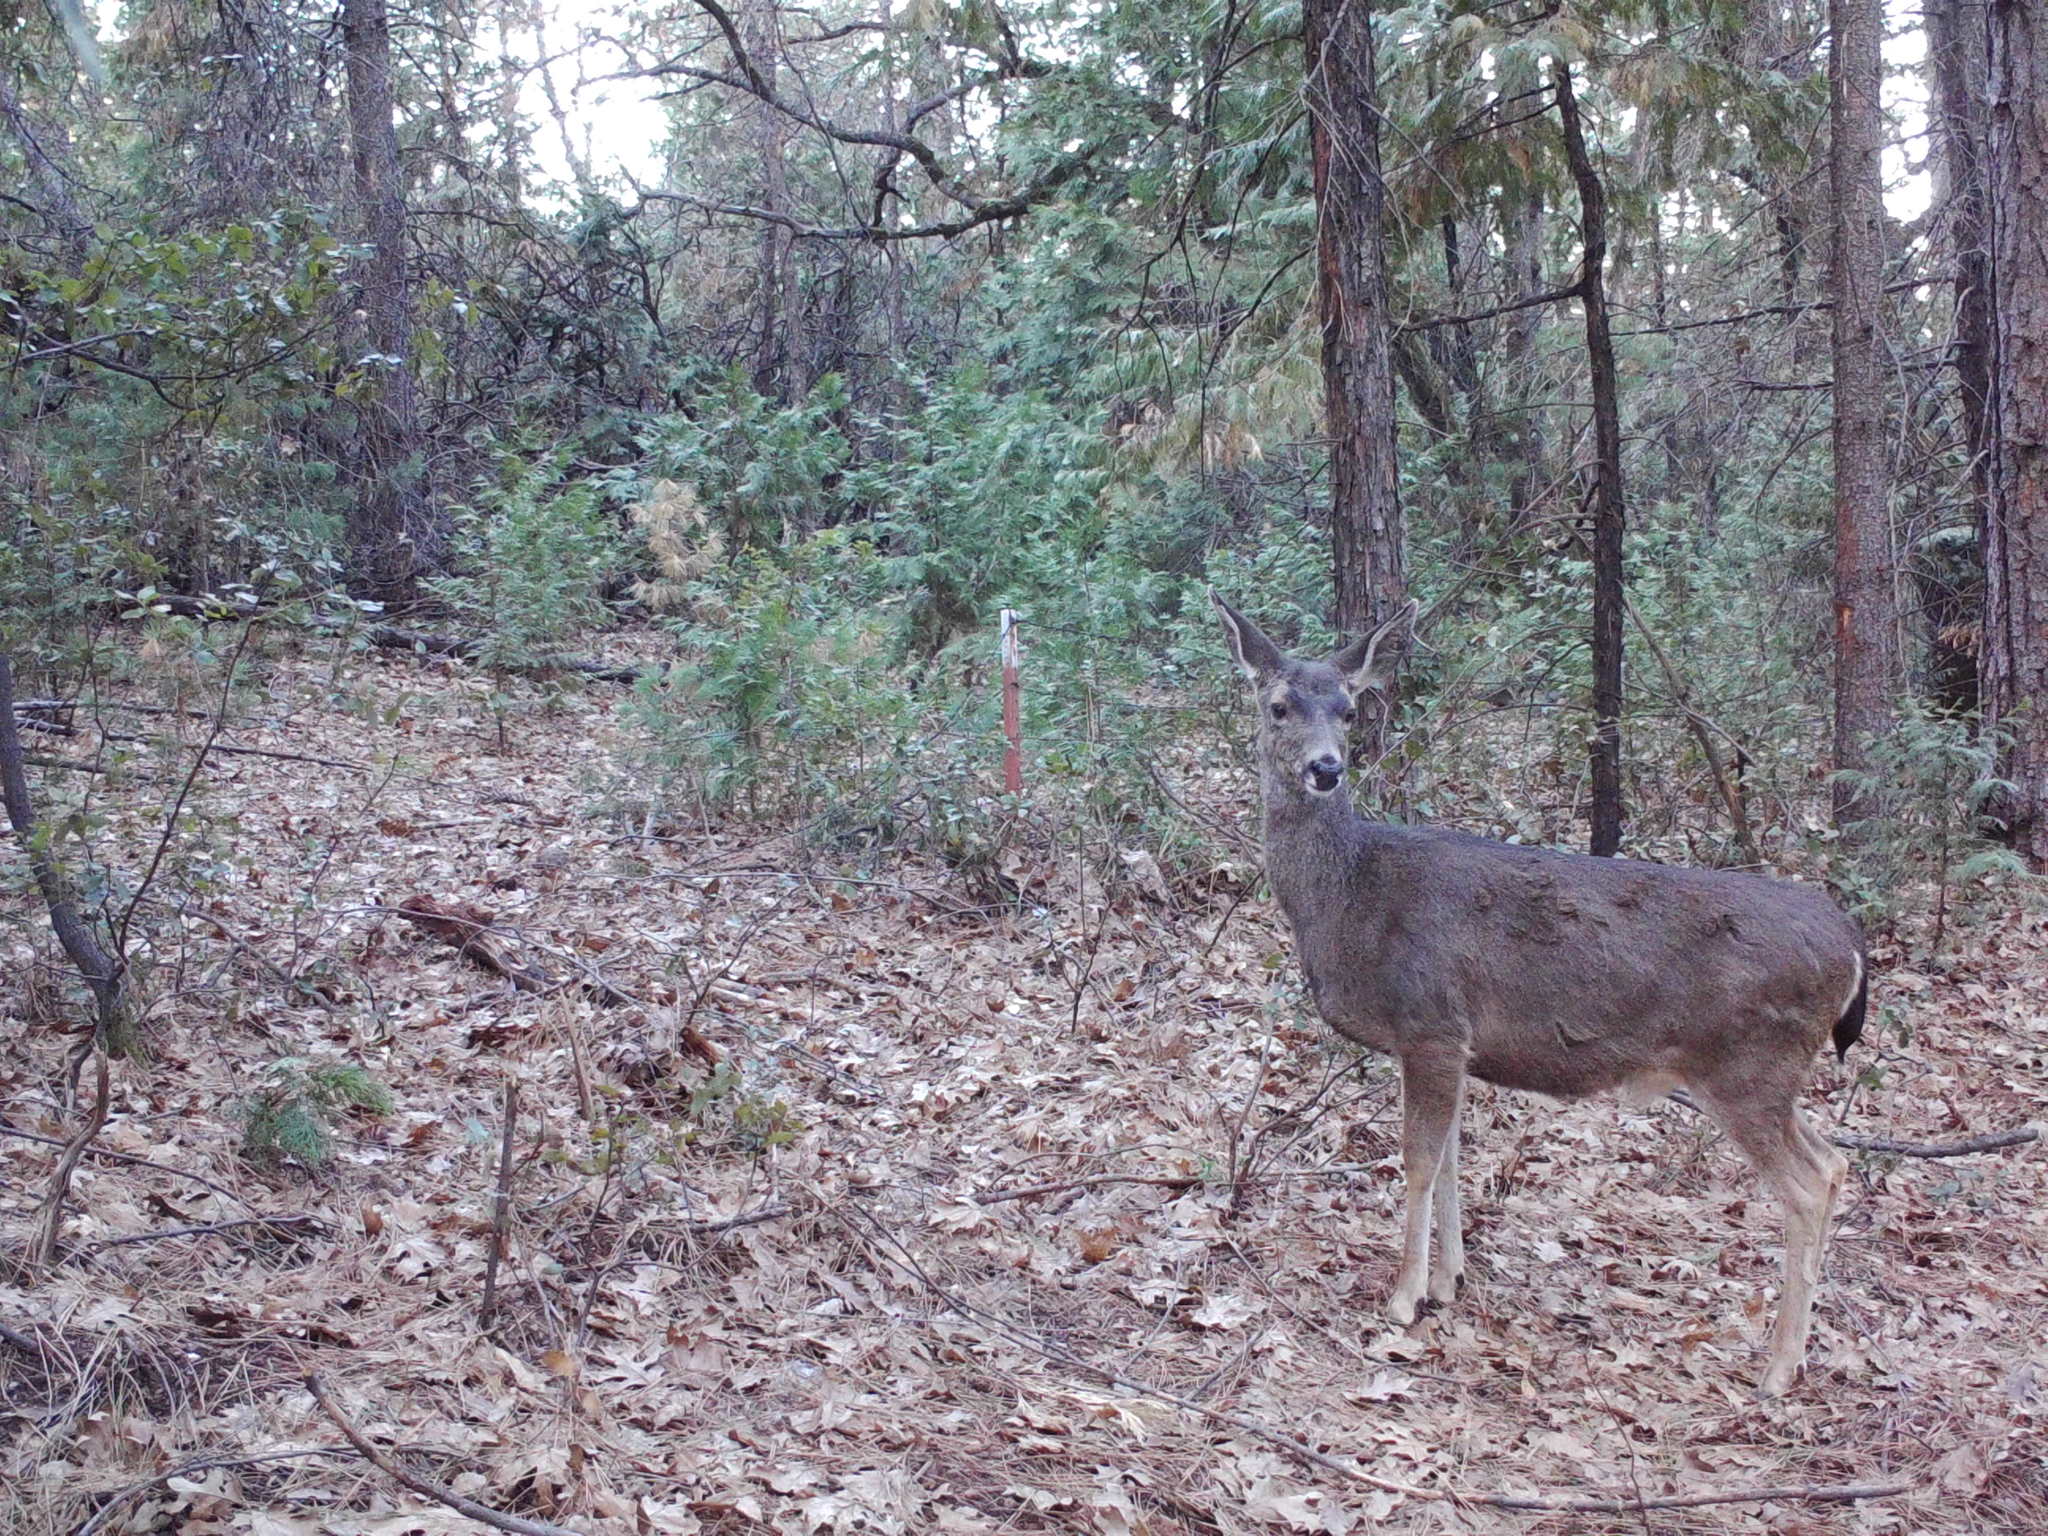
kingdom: Animalia
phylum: Chordata
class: Mammalia
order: Artiodactyla
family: Cervidae
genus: Odocoileus
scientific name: Odocoileus hemionus
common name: Mule deer
